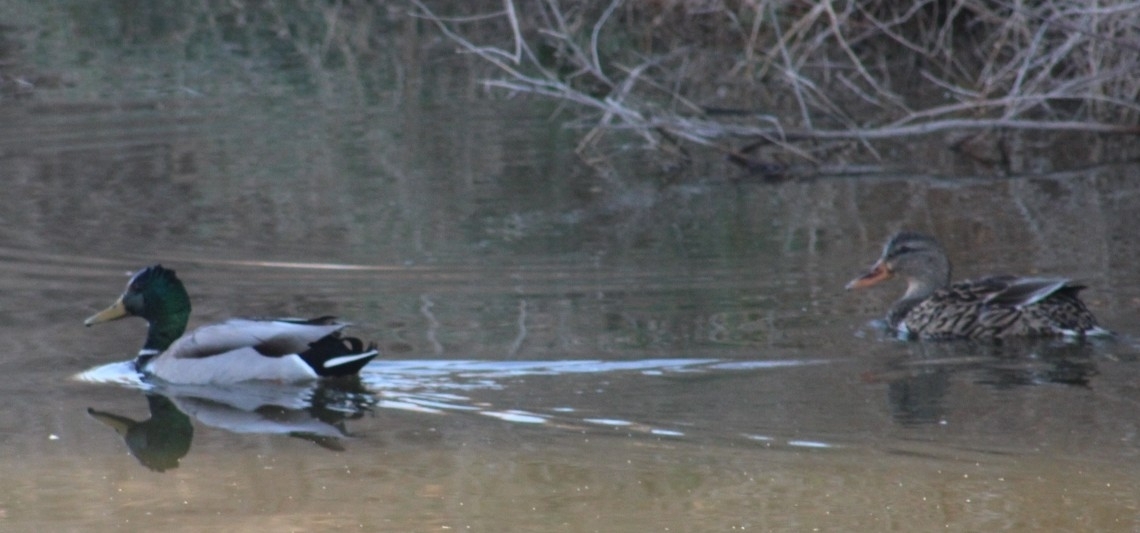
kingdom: Animalia
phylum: Chordata
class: Aves
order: Anseriformes
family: Anatidae
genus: Anas
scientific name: Anas platyrhynchos
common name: Mallard
